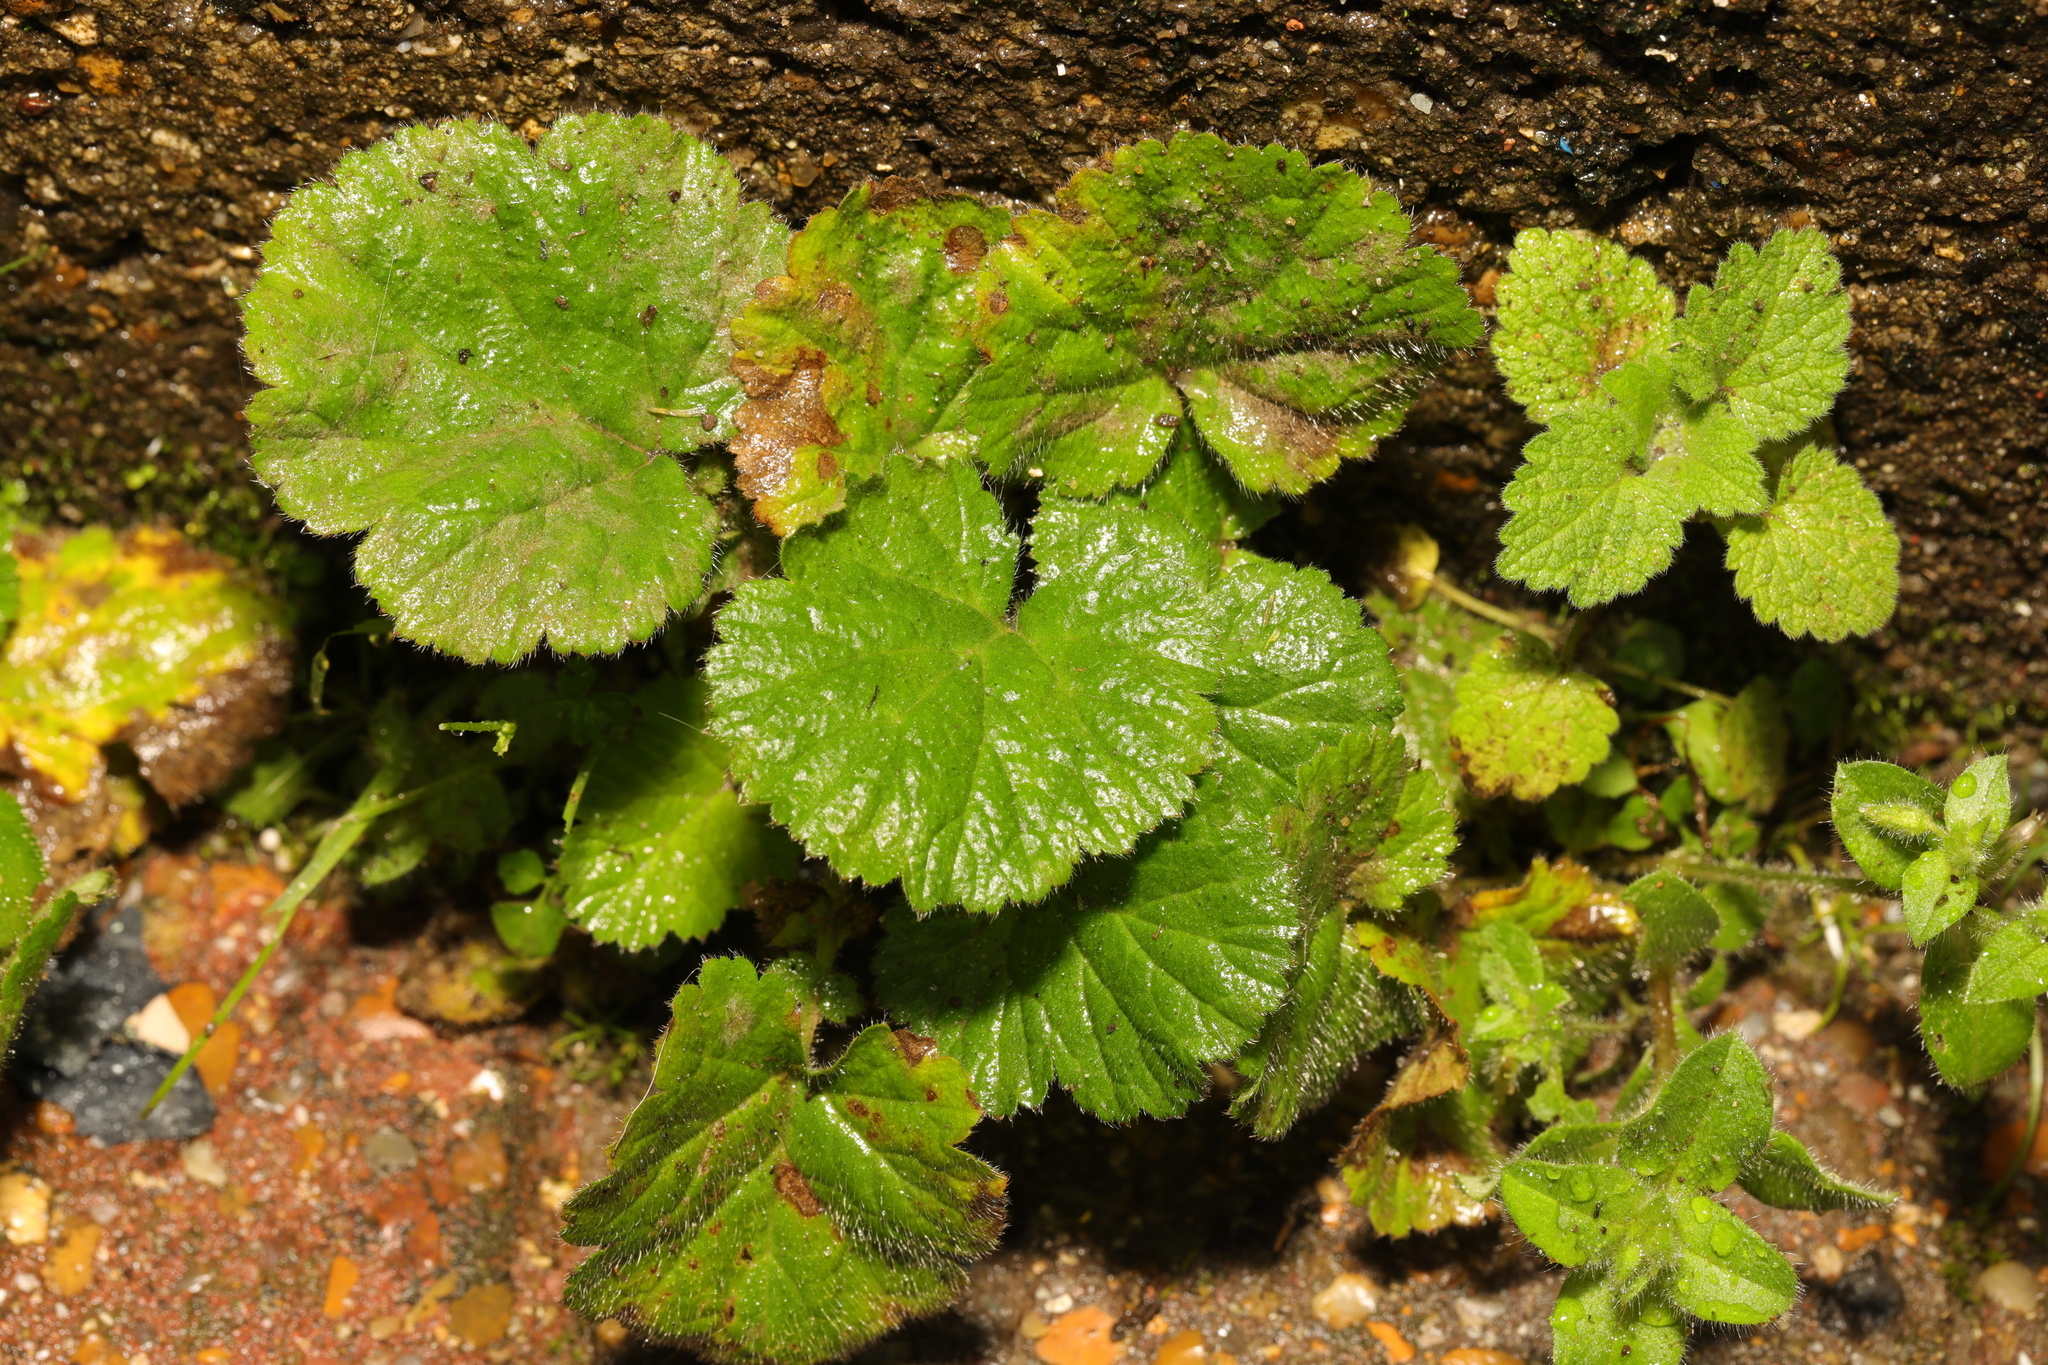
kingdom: Plantae
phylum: Tracheophyta
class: Magnoliopsida
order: Rosales
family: Rosaceae
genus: Geum
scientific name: Geum urbanum
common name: Wood avens
